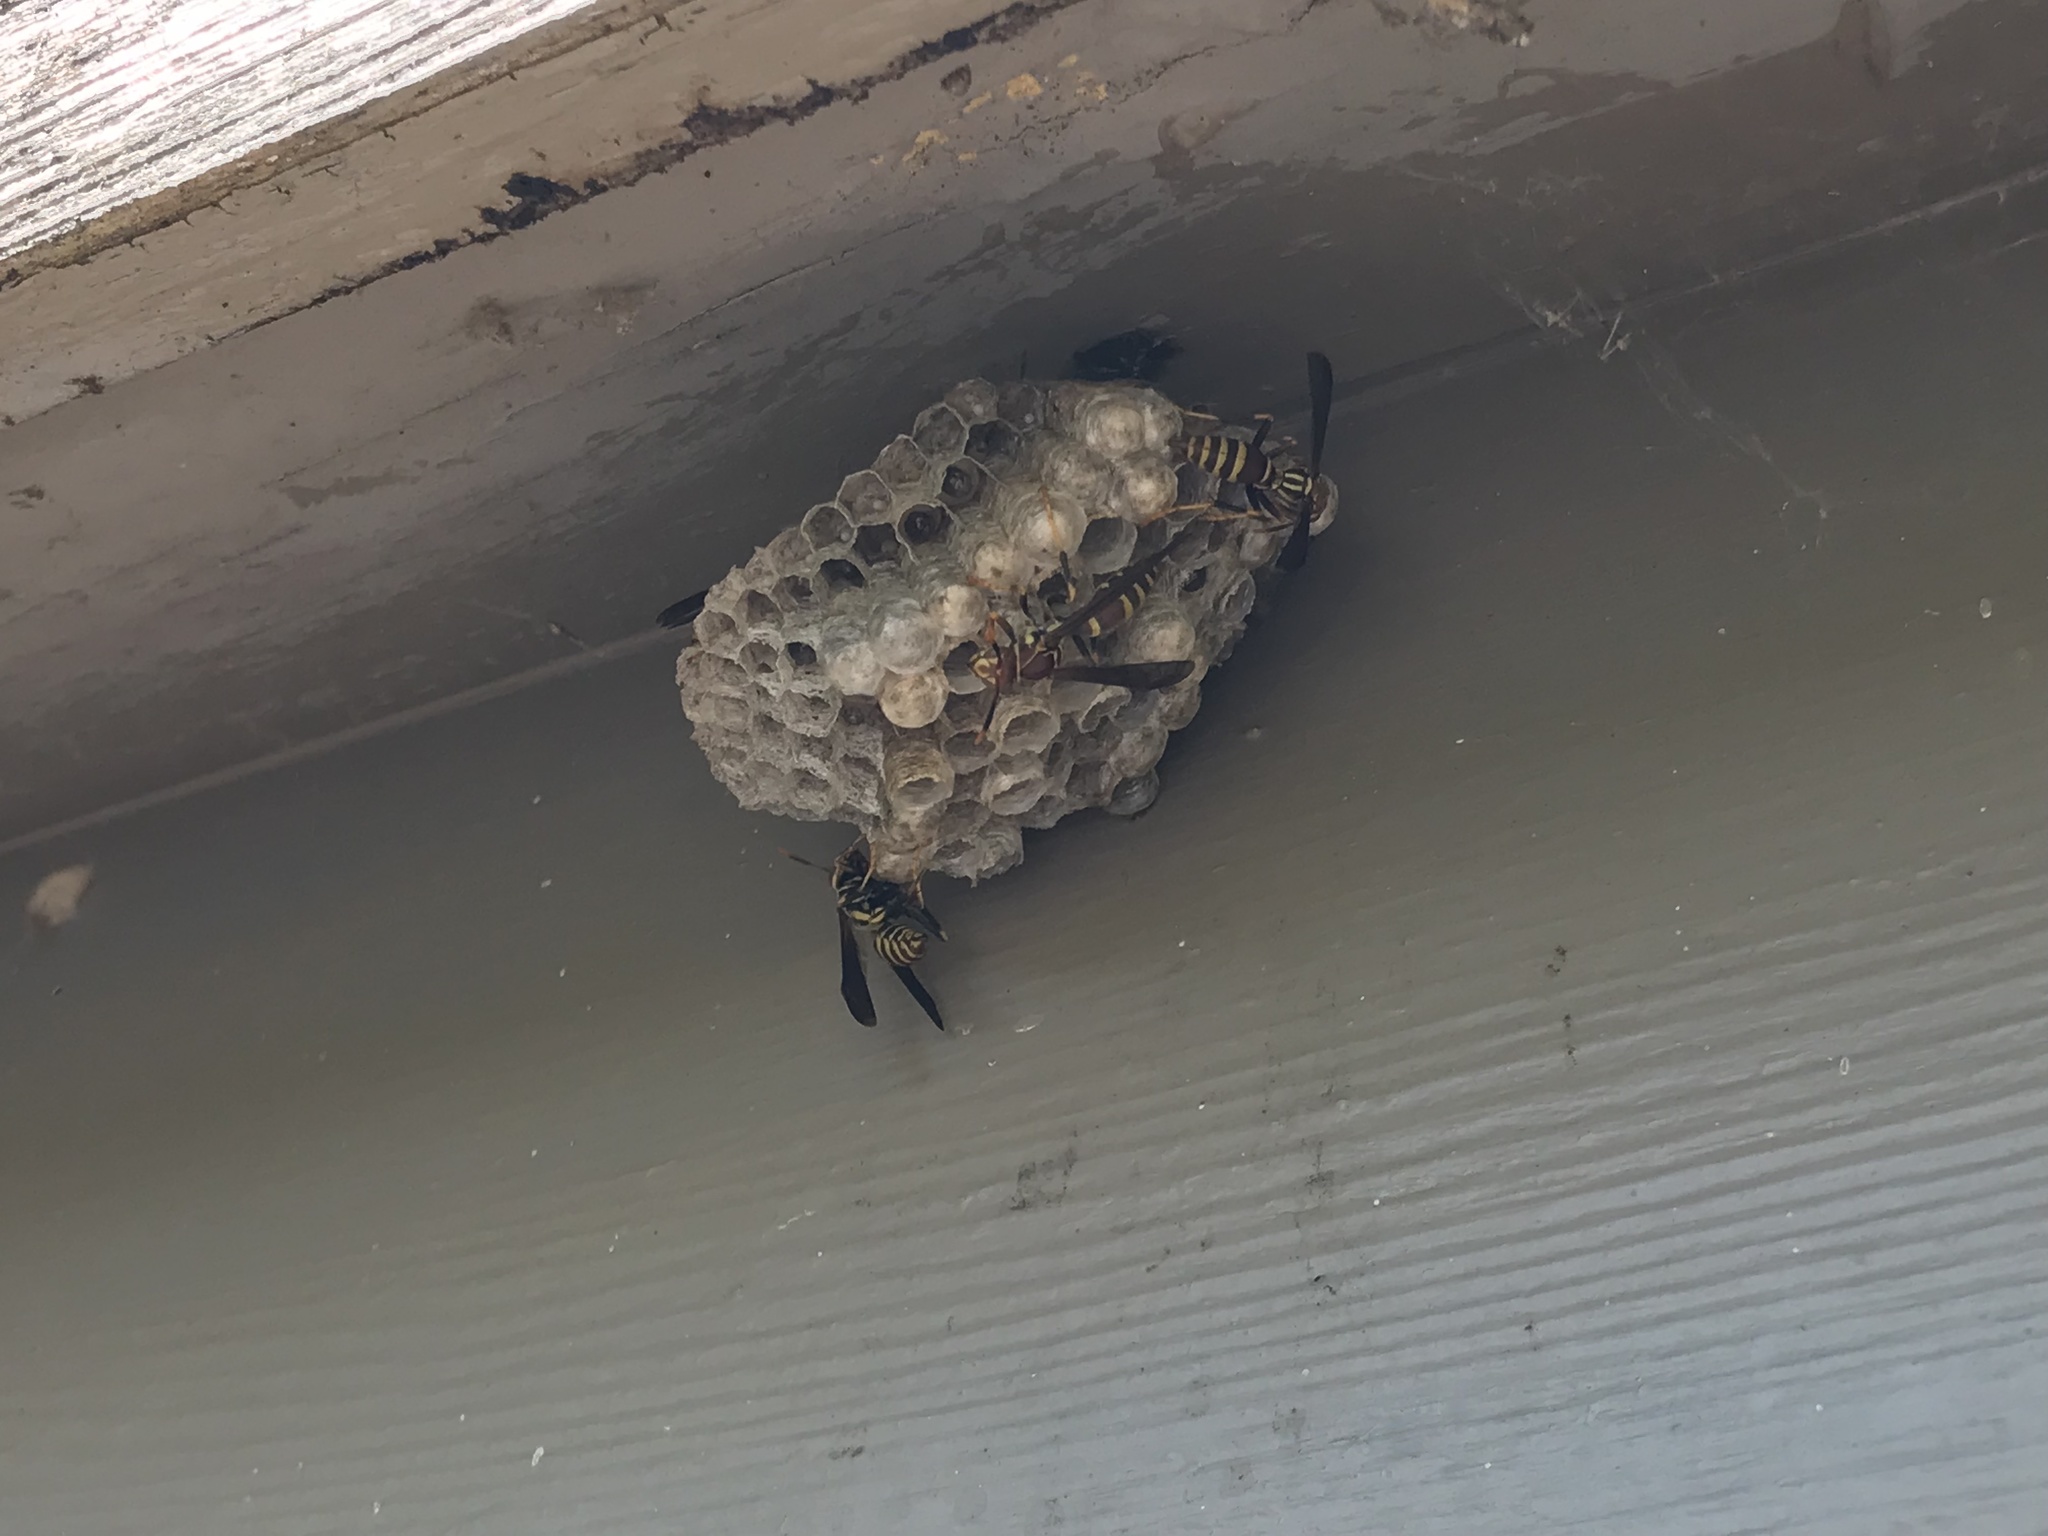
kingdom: Animalia
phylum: Arthropoda
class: Insecta
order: Hymenoptera
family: Eumenidae
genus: Polistes
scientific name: Polistes exclamans
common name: Paper wasp
